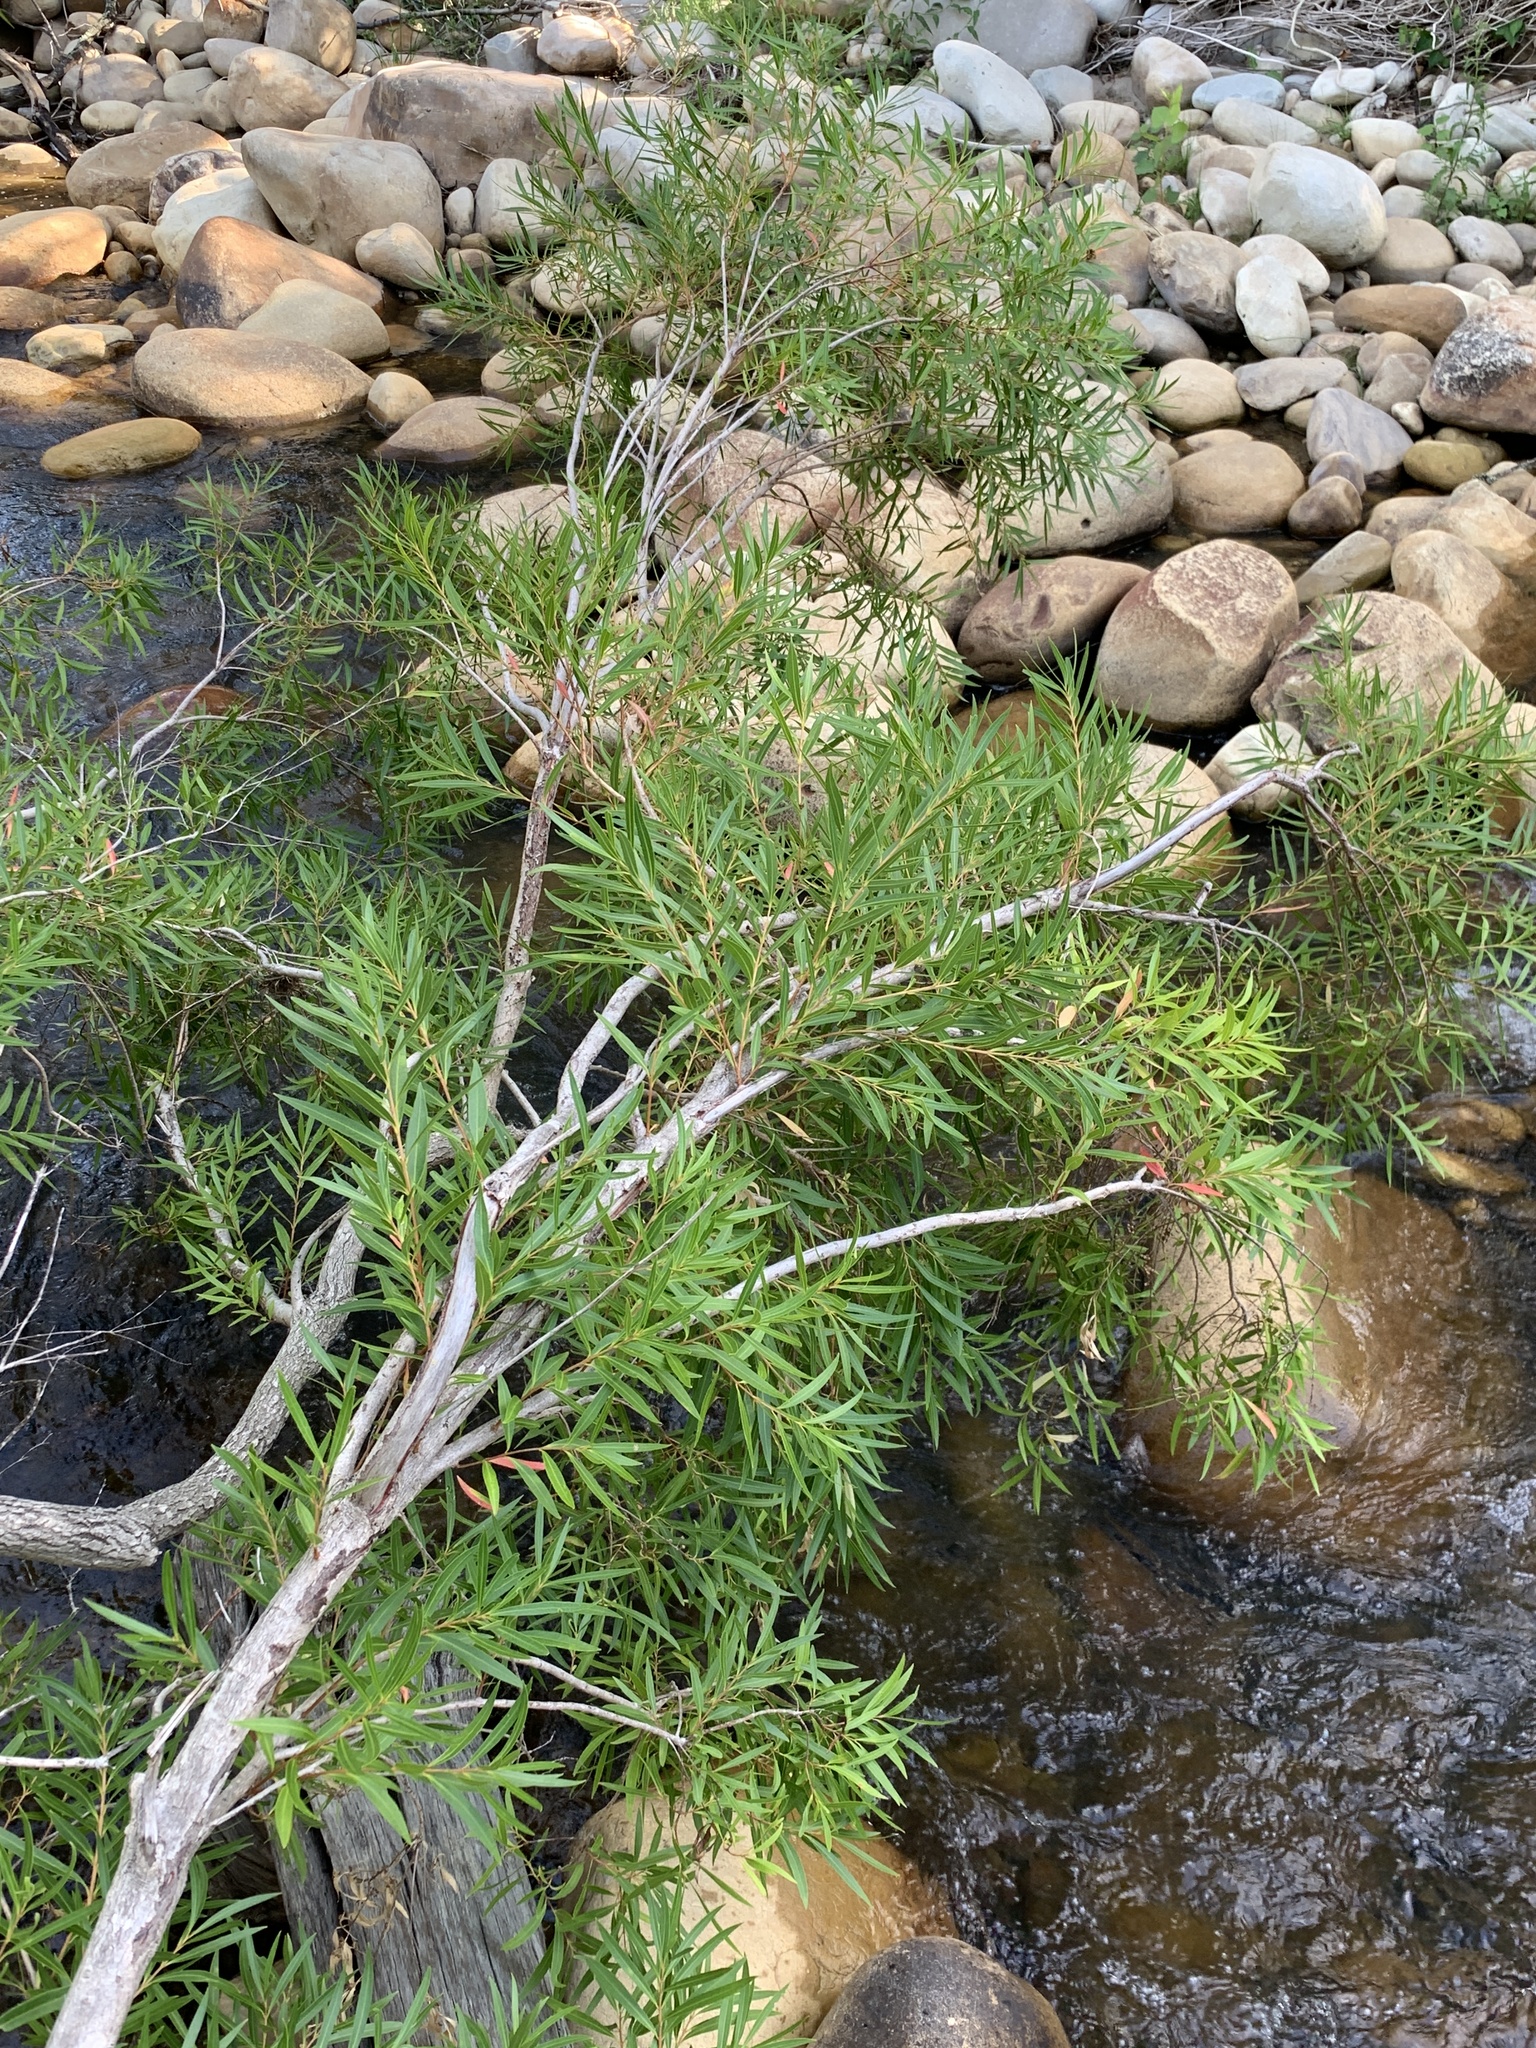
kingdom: Plantae
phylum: Tracheophyta
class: Magnoliopsida
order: Myrtales
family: Myrtaceae
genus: Callistemon
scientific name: Callistemon lanceolatus
